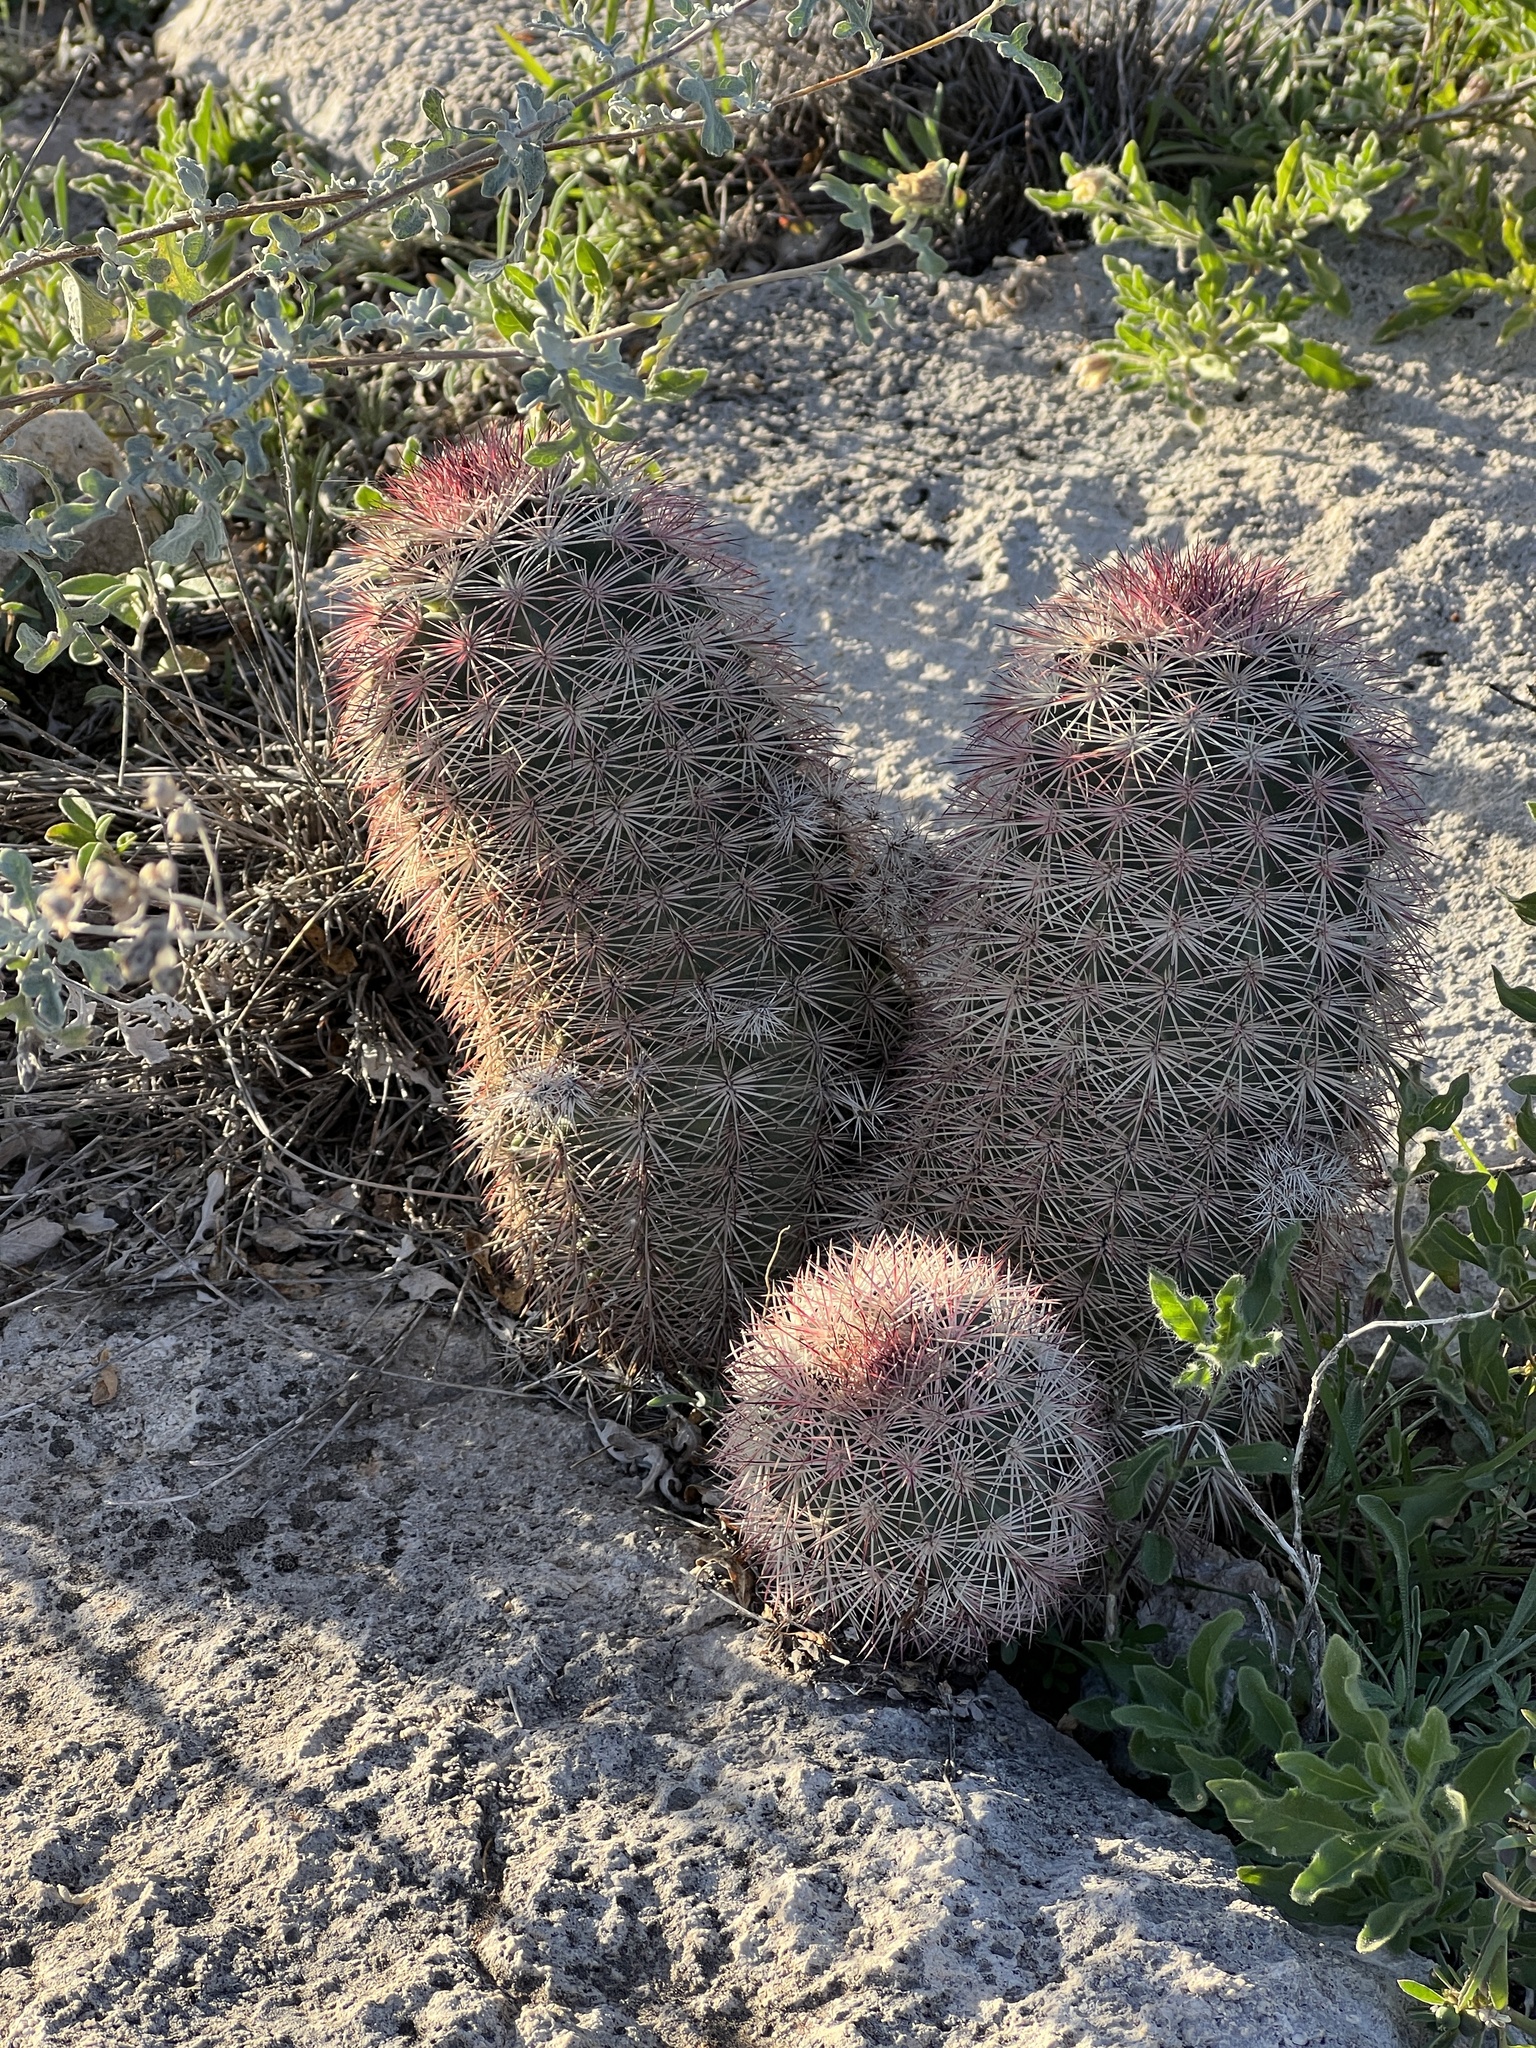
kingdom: Plantae
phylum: Tracheophyta
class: Magnoliopsida
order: Caryophyllales
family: Cactaceae
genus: Echinocereus
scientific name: Echinocereus dasyacanthus
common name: Spiny hedgehog cactus
